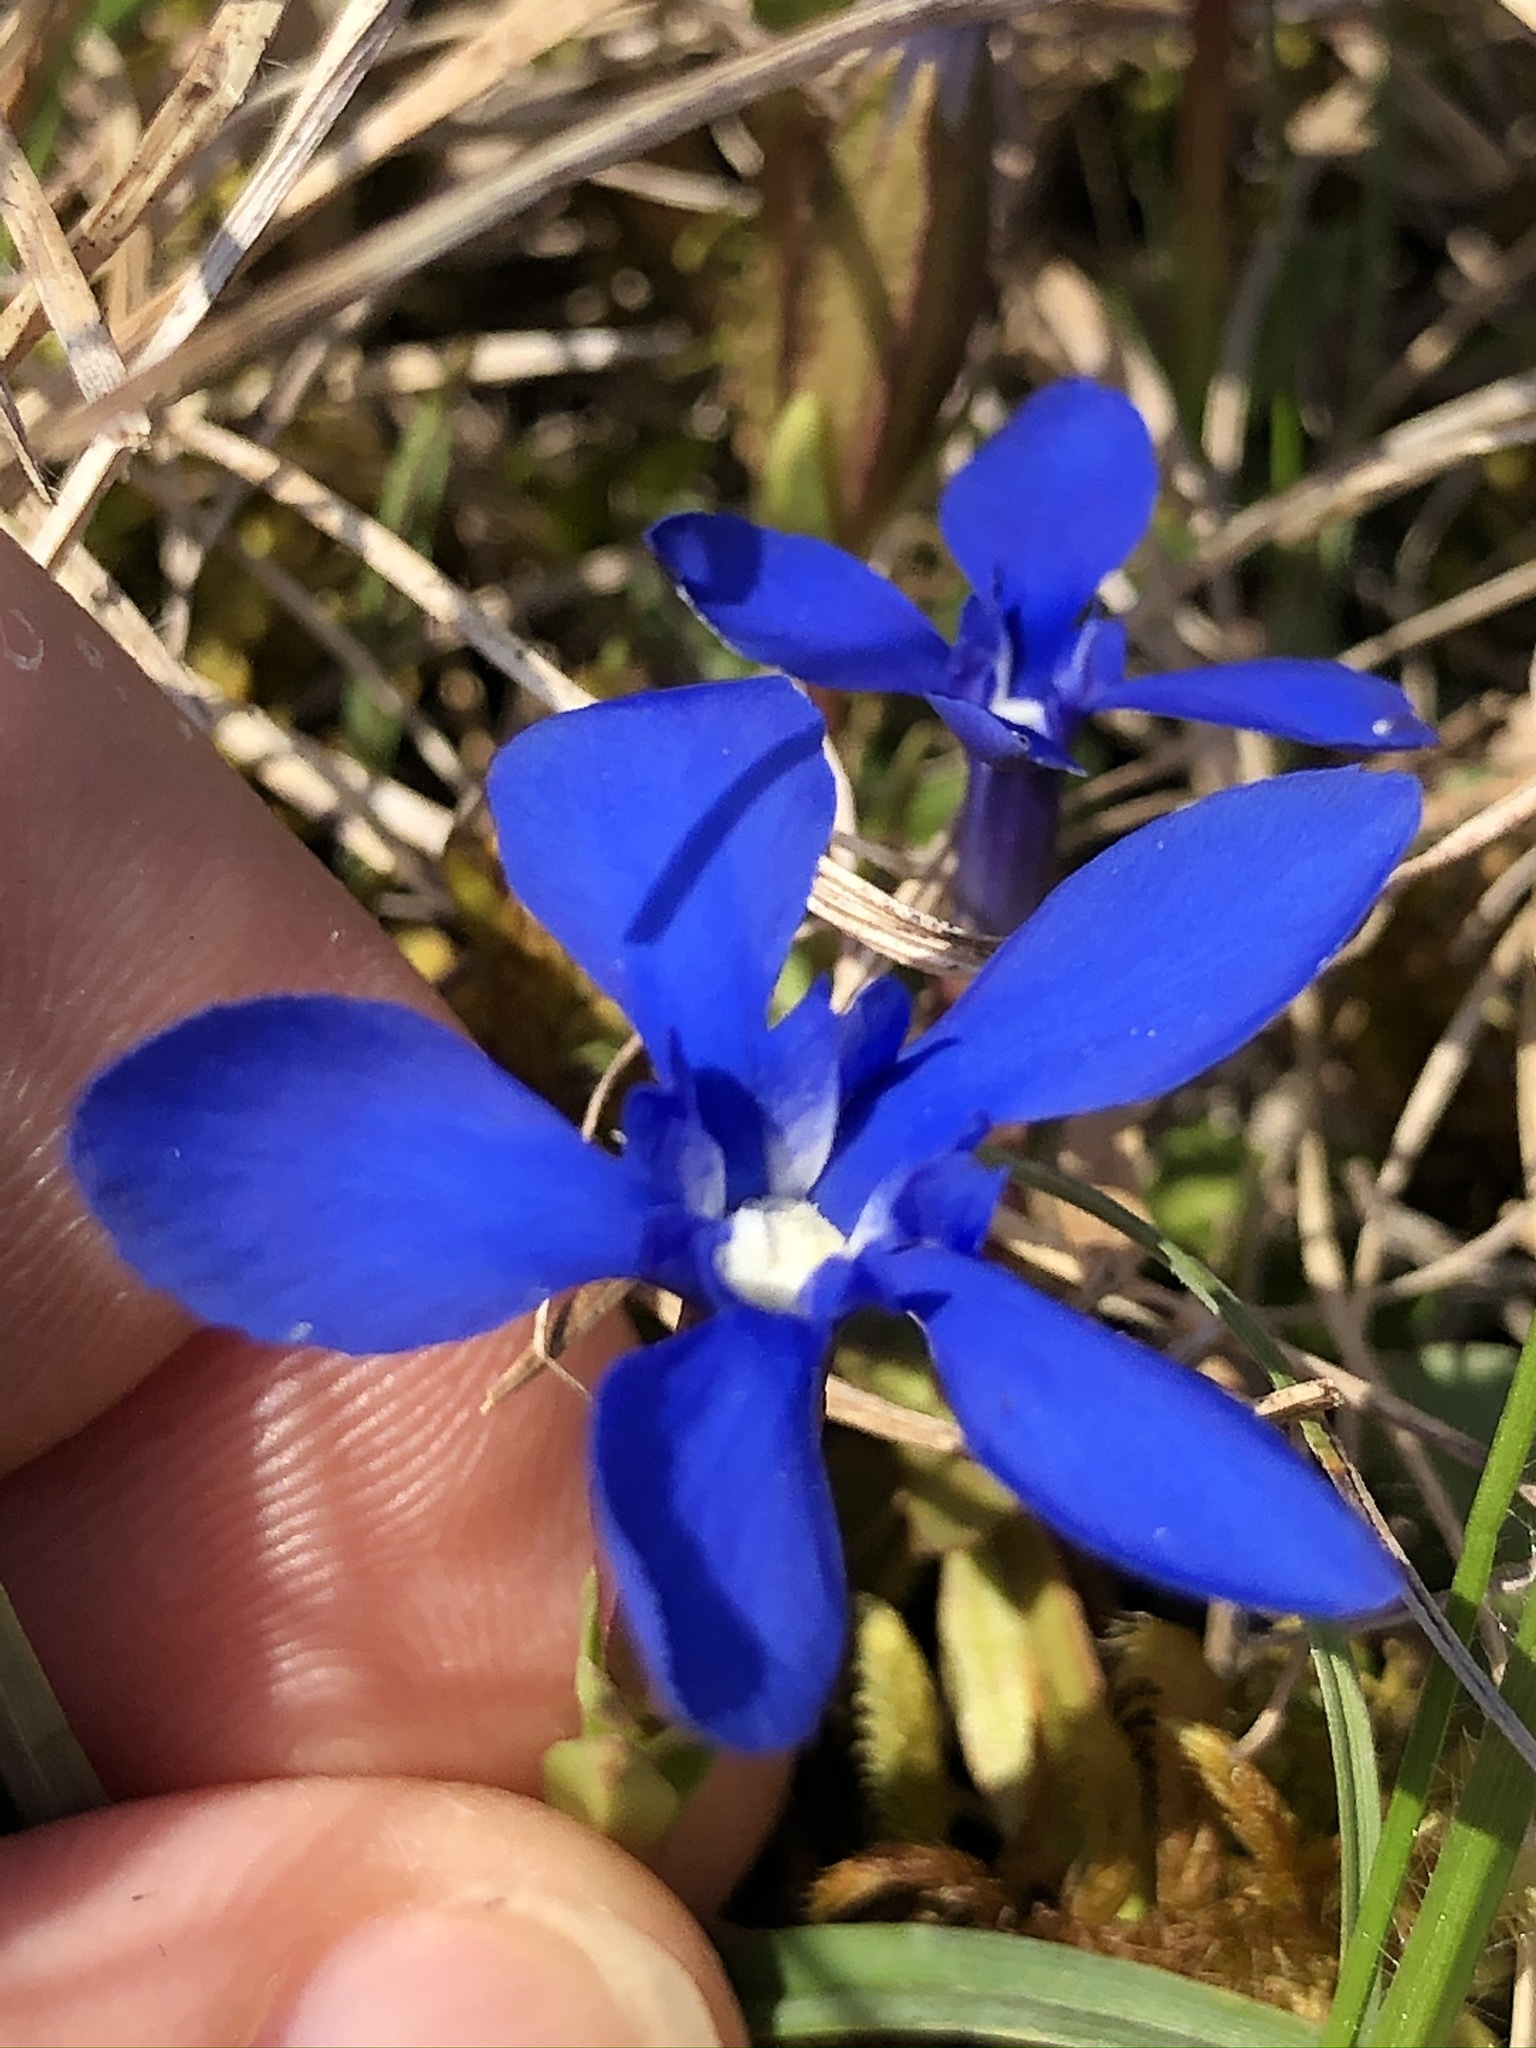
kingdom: Plantae
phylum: Tracheophyta
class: Magnoliopsida
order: Gentianales
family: Gentianaceae
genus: Gentiana
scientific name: Gentiana verna
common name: Spring gentian
